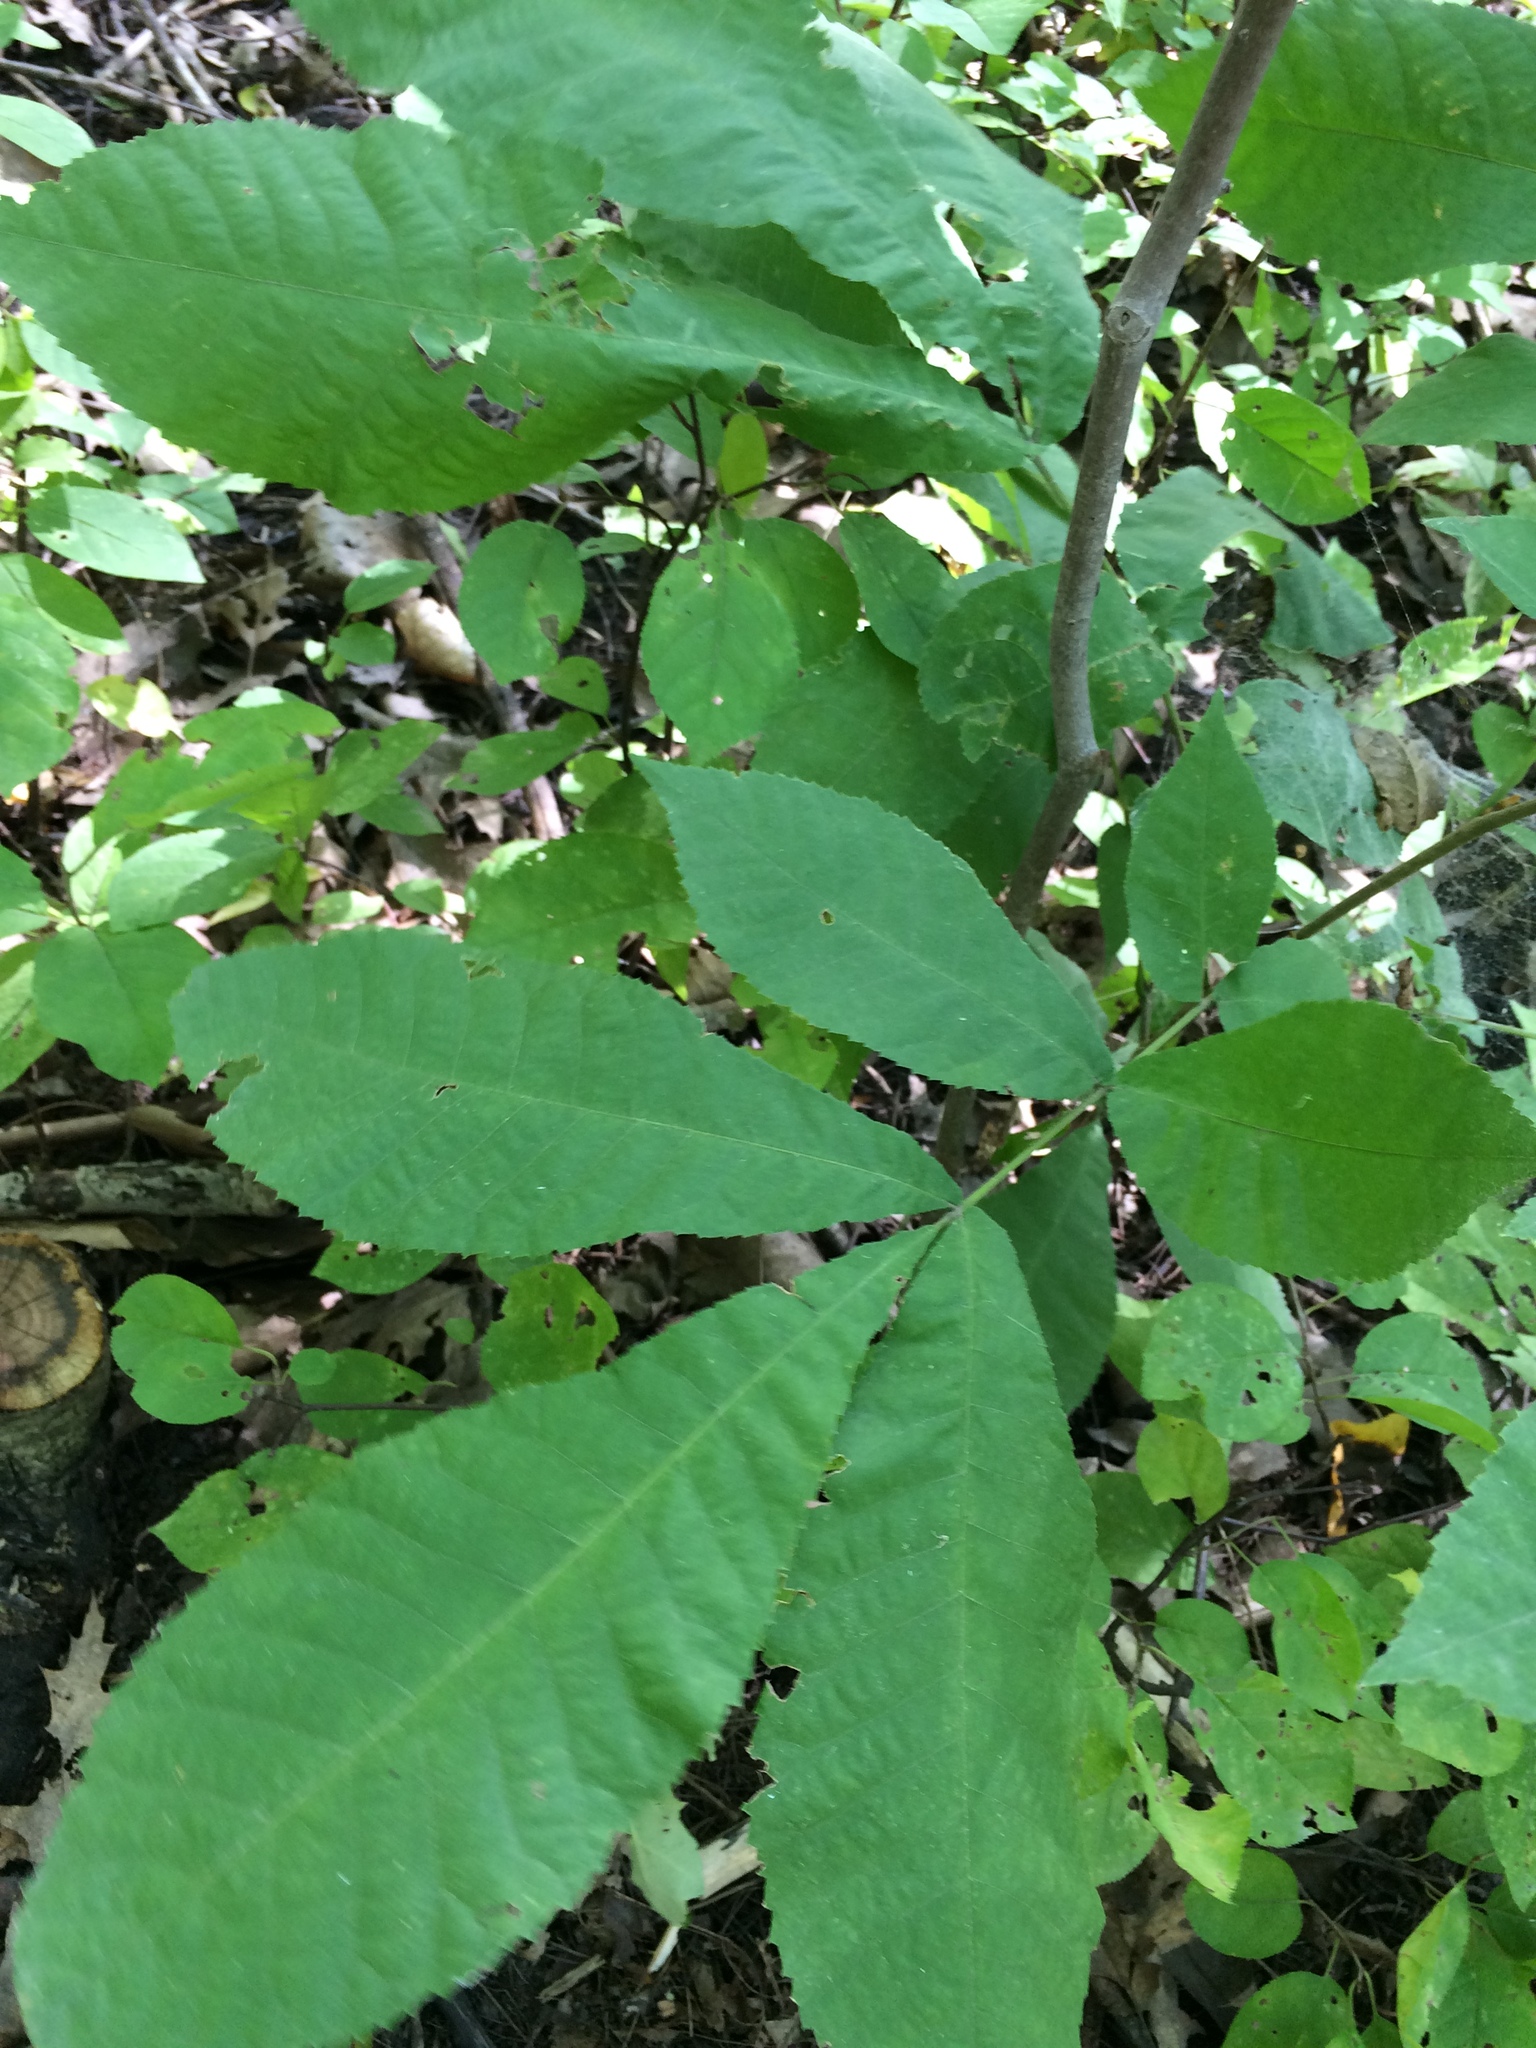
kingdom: Plantae
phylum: Tracheophyta
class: Magnoliopsida
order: Fagales
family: Juglandaceae
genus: Carya
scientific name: Carya cordiformis
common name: Bitternut hickory
